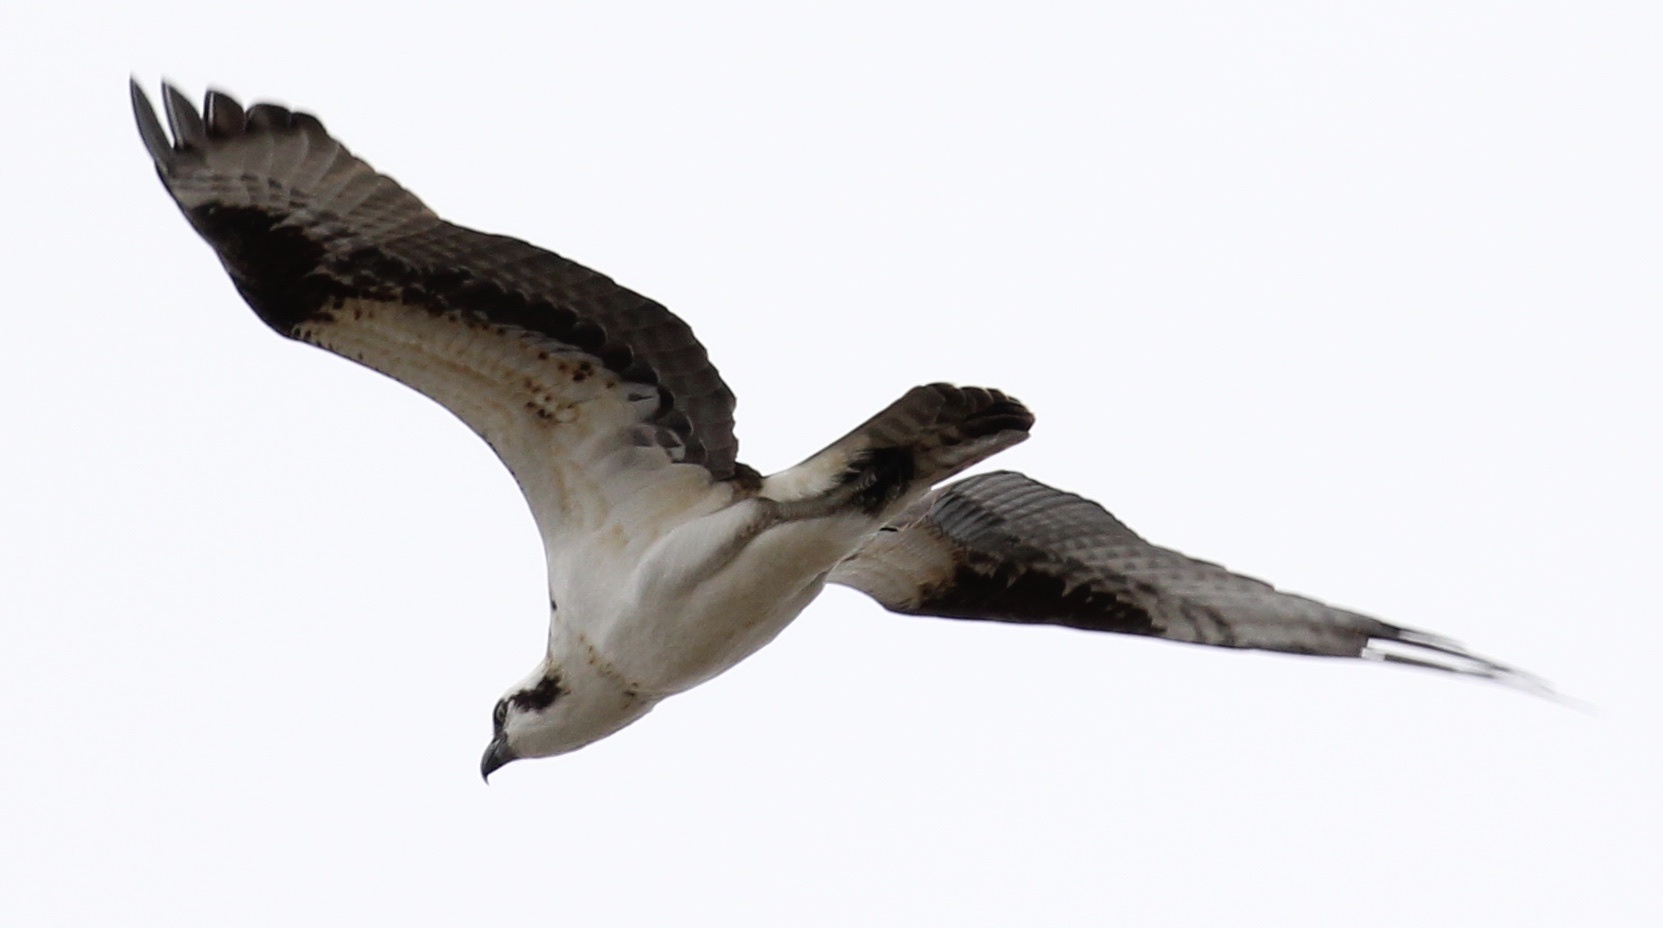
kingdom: Animalia
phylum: Chordata
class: Aves
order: Accipitriformes
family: Pandionidae
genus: Pandion
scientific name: Pandion haliaetus
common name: Osprey
